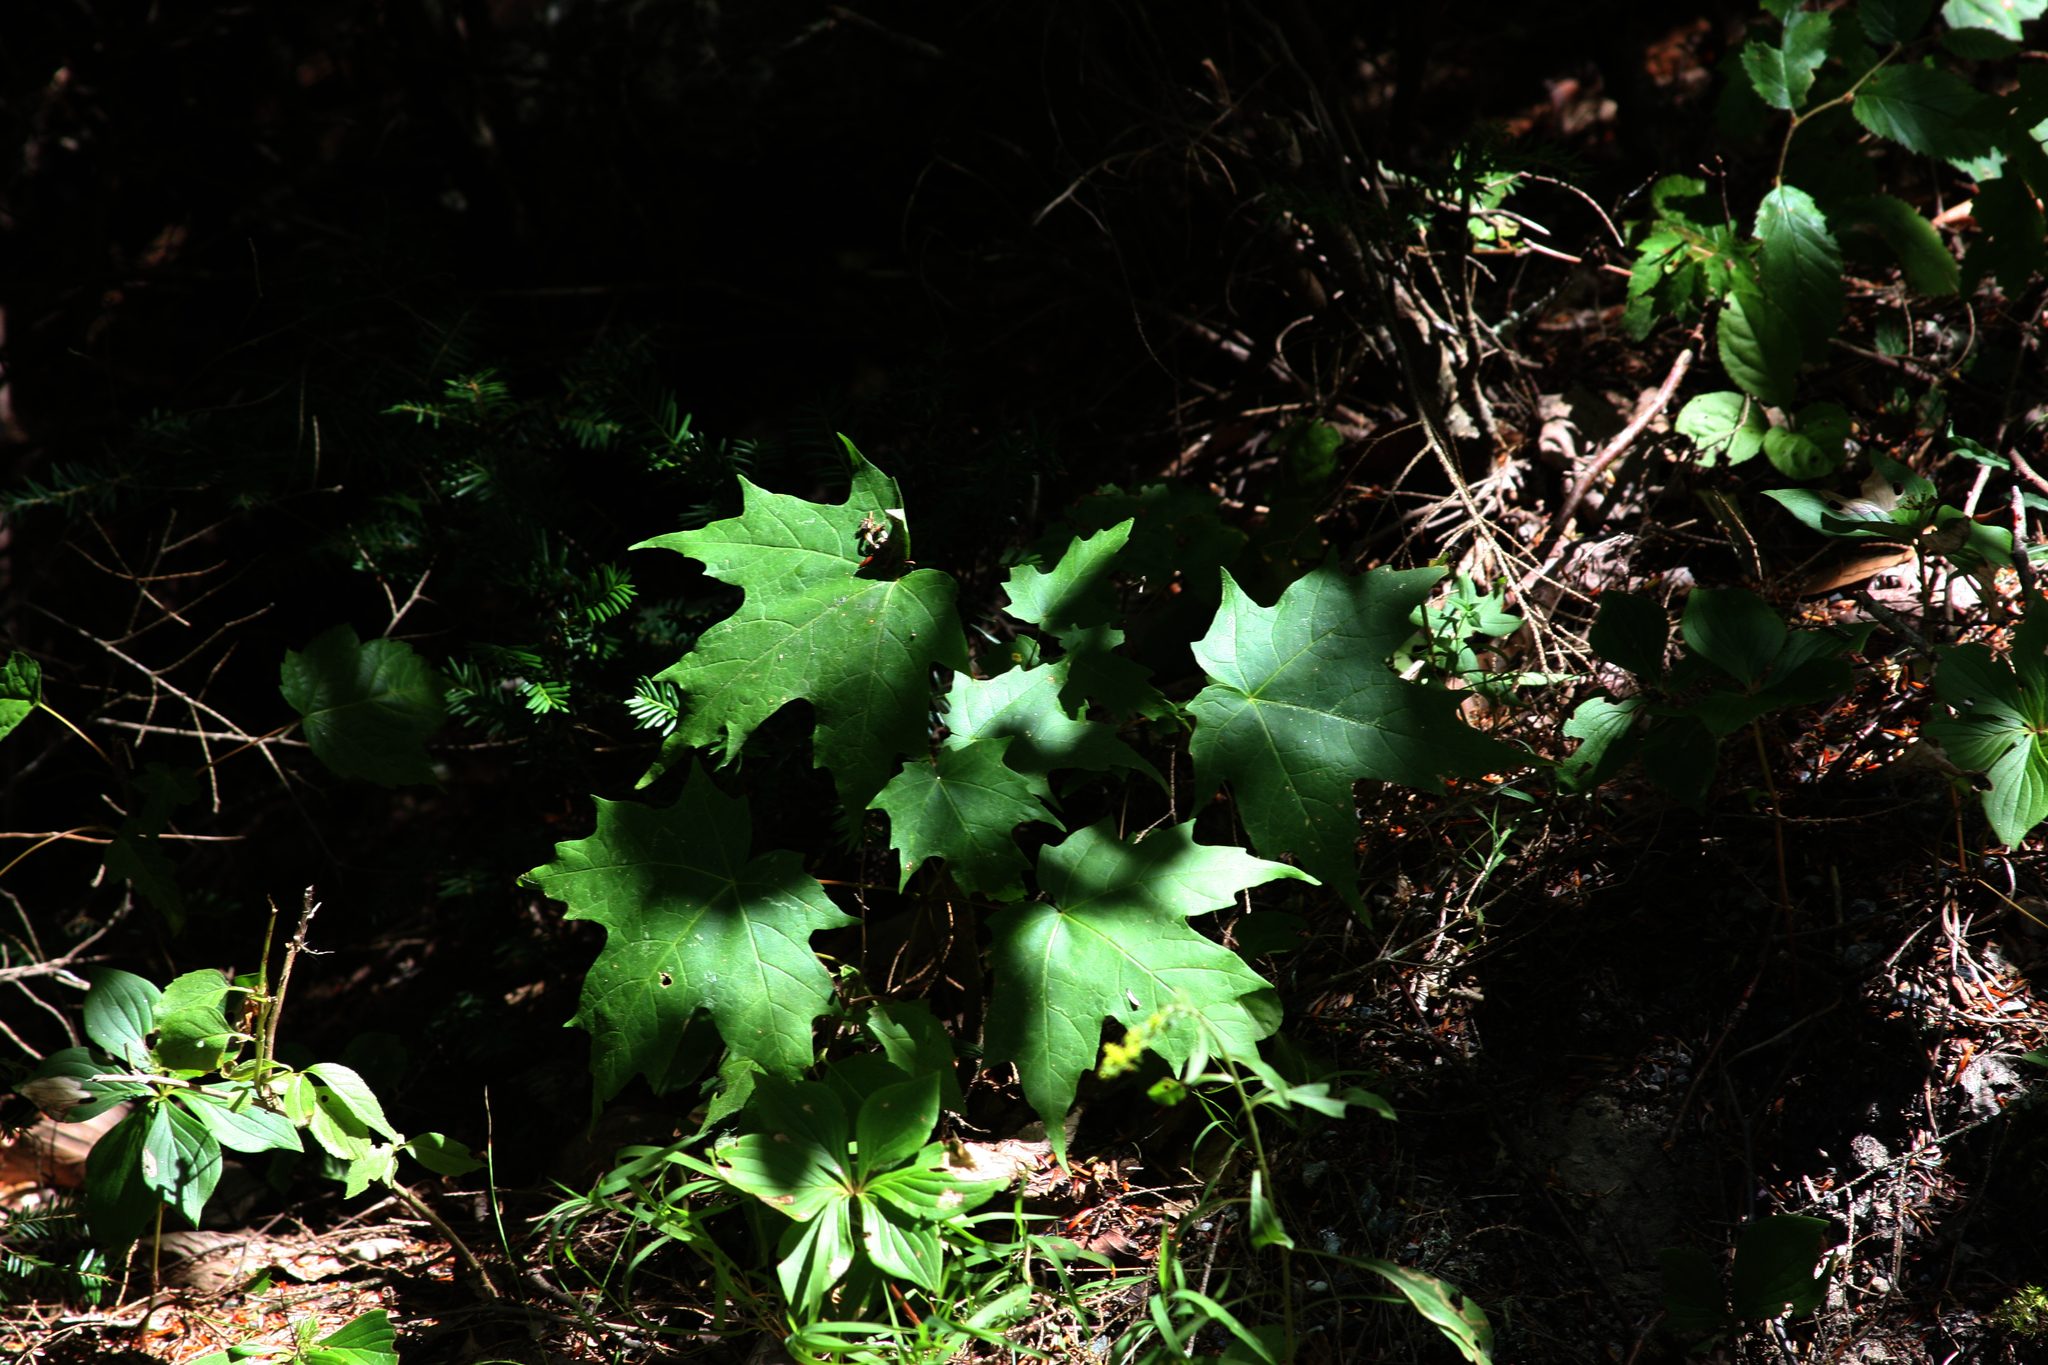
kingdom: Plantae
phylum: Tracheophyta
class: Magnoliopsida
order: Sapindales
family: Sapindaceae
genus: Acer
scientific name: Acer saccharum
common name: Sugar maple
